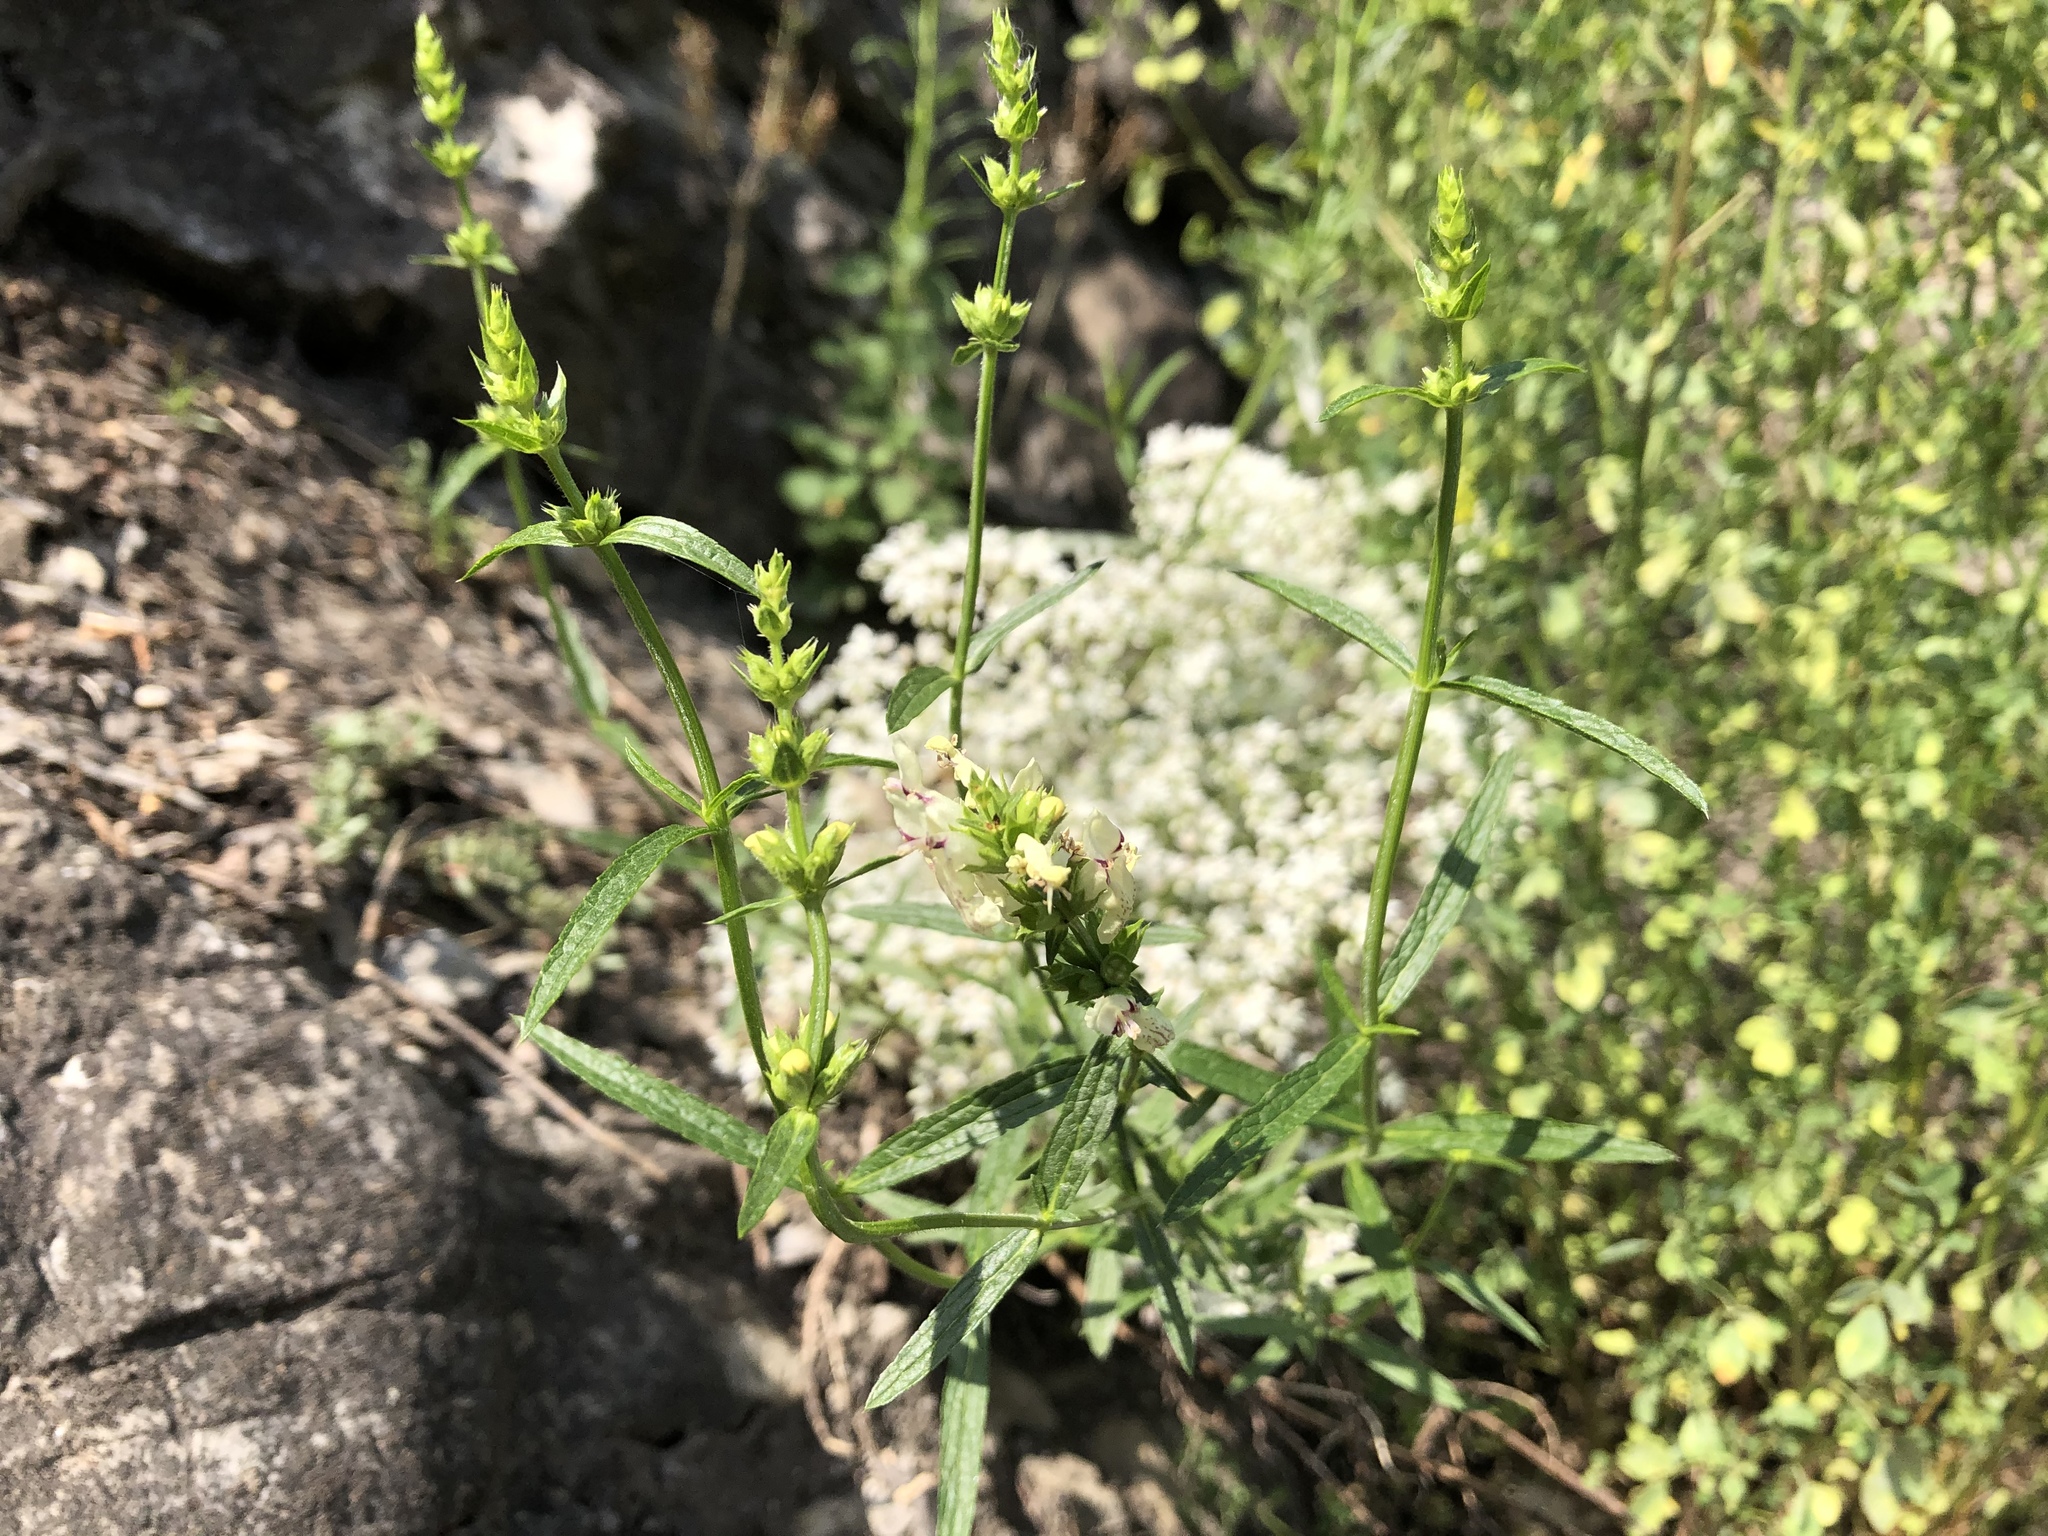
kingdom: Plantae
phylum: Tracheophyta
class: Magnoliopsida
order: Lamiales
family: Lamiaceae
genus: Stachys
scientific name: Stachys recta
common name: Perennial yellow-woundwort
